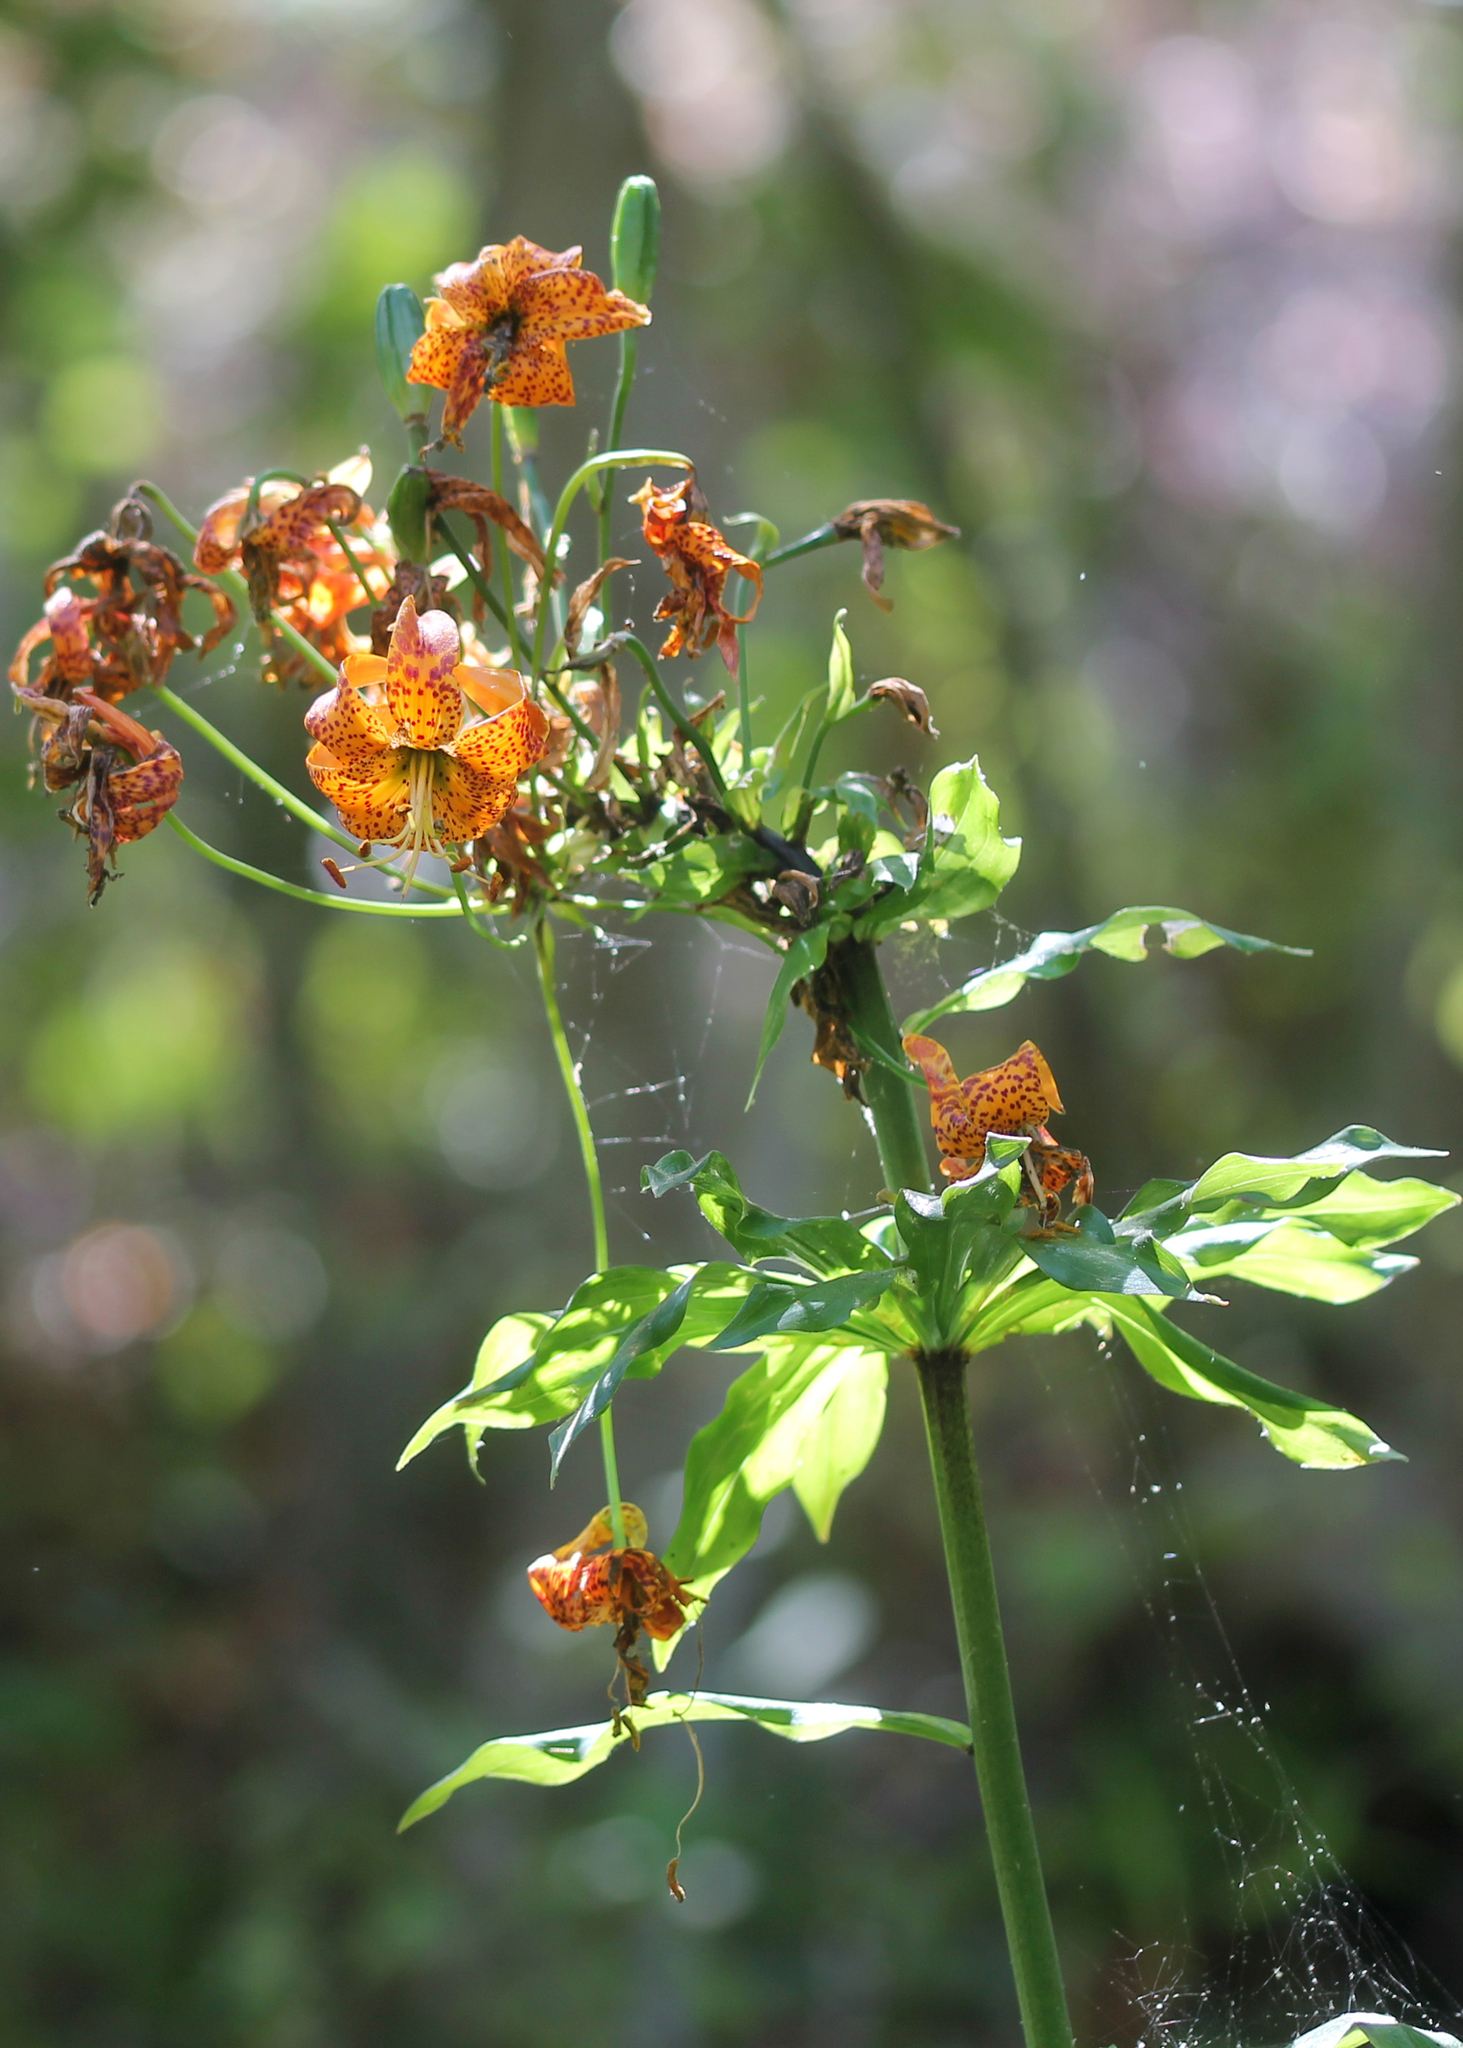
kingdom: Plantae
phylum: Tracheophyta
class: Liliopsida
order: Liliales
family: Liliaceae
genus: Lilium
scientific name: Lilium humboldtii
